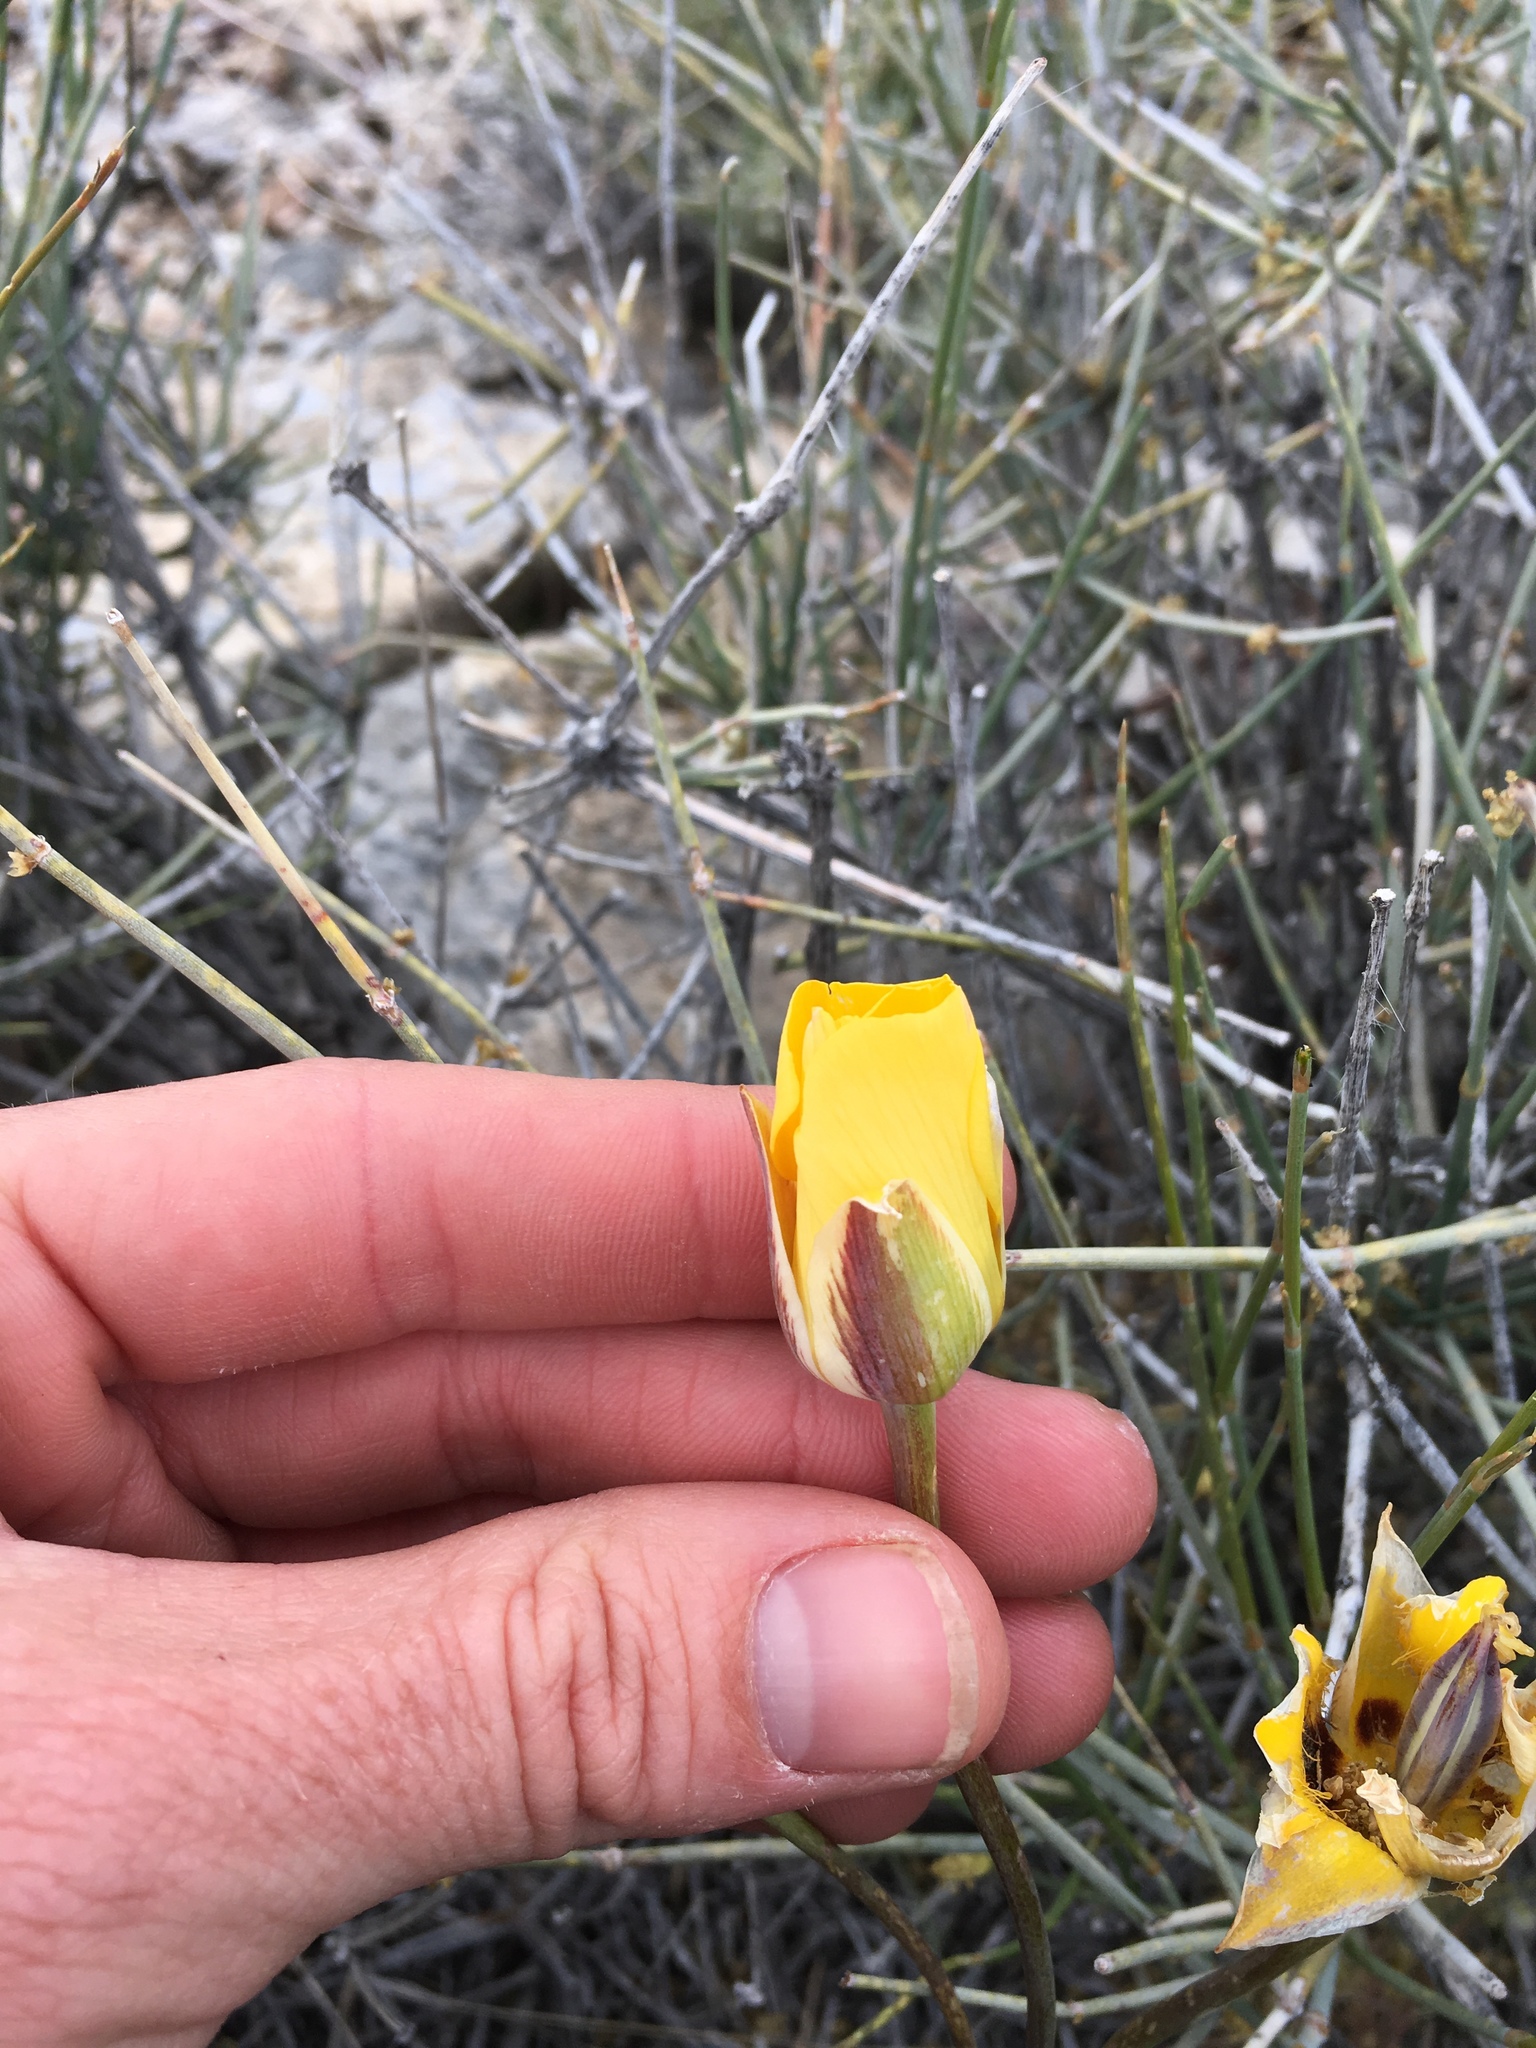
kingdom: Plantae
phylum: Tracheophyta
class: Liliopsida
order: Liliales
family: Liliaceae
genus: Calochortus
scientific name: Calochortus kennedyi
